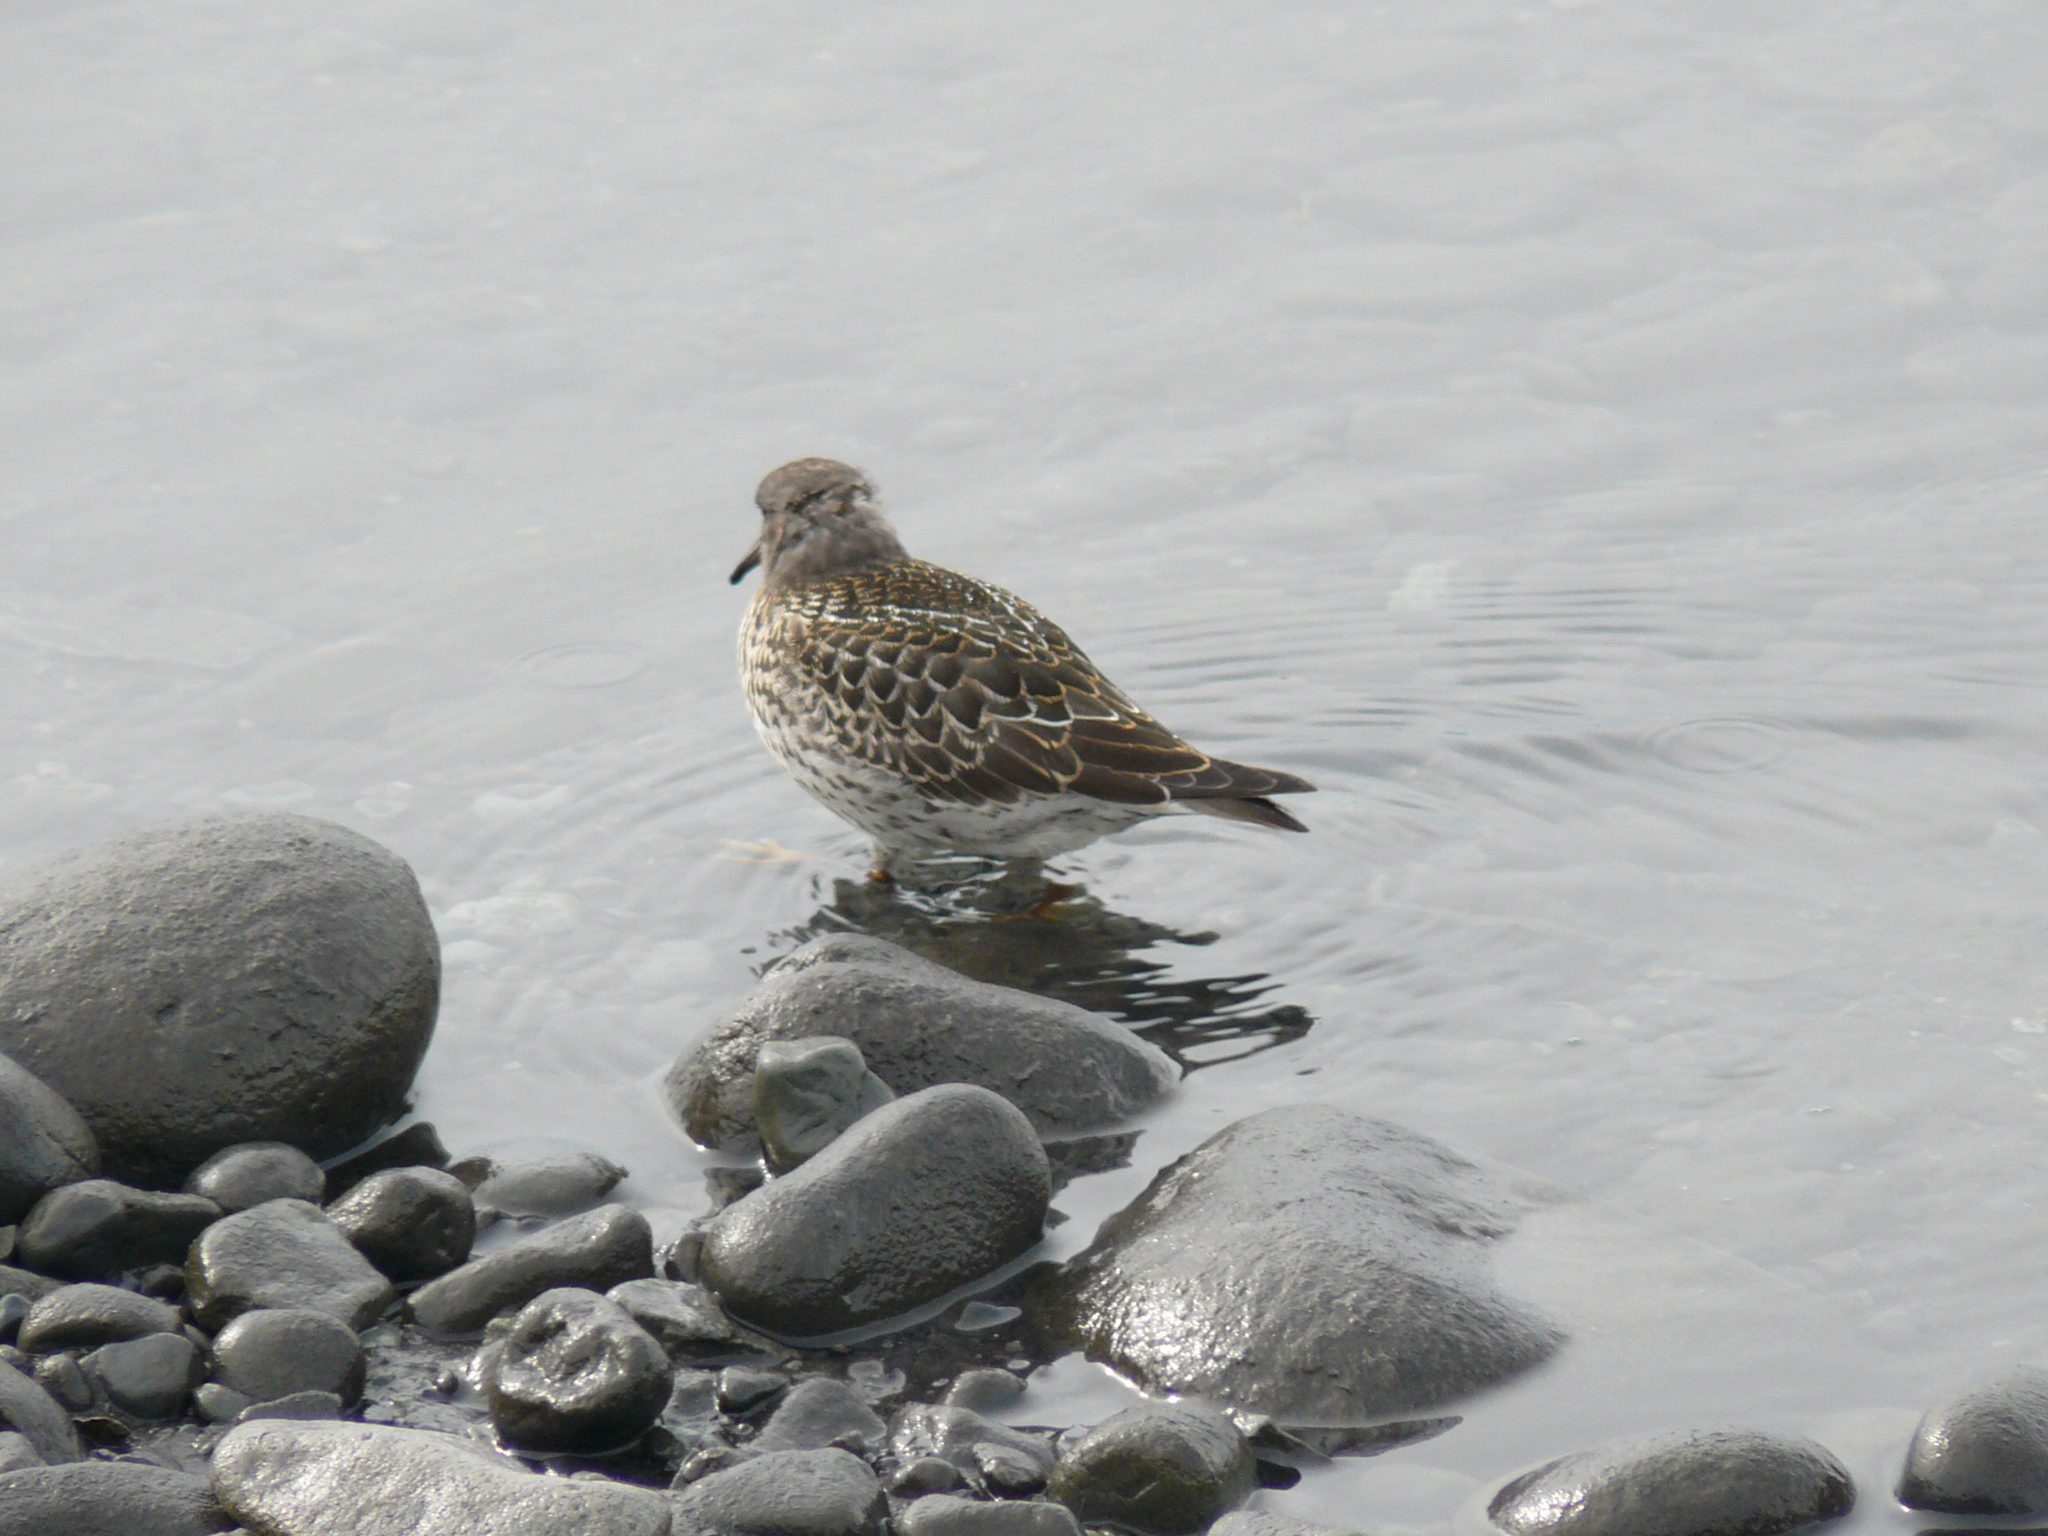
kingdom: Animalia
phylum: Chordata
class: Aves
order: Charadriiformes
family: Scolopacidae
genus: Calidris
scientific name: Calidris maritima
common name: Purple sandpiper
